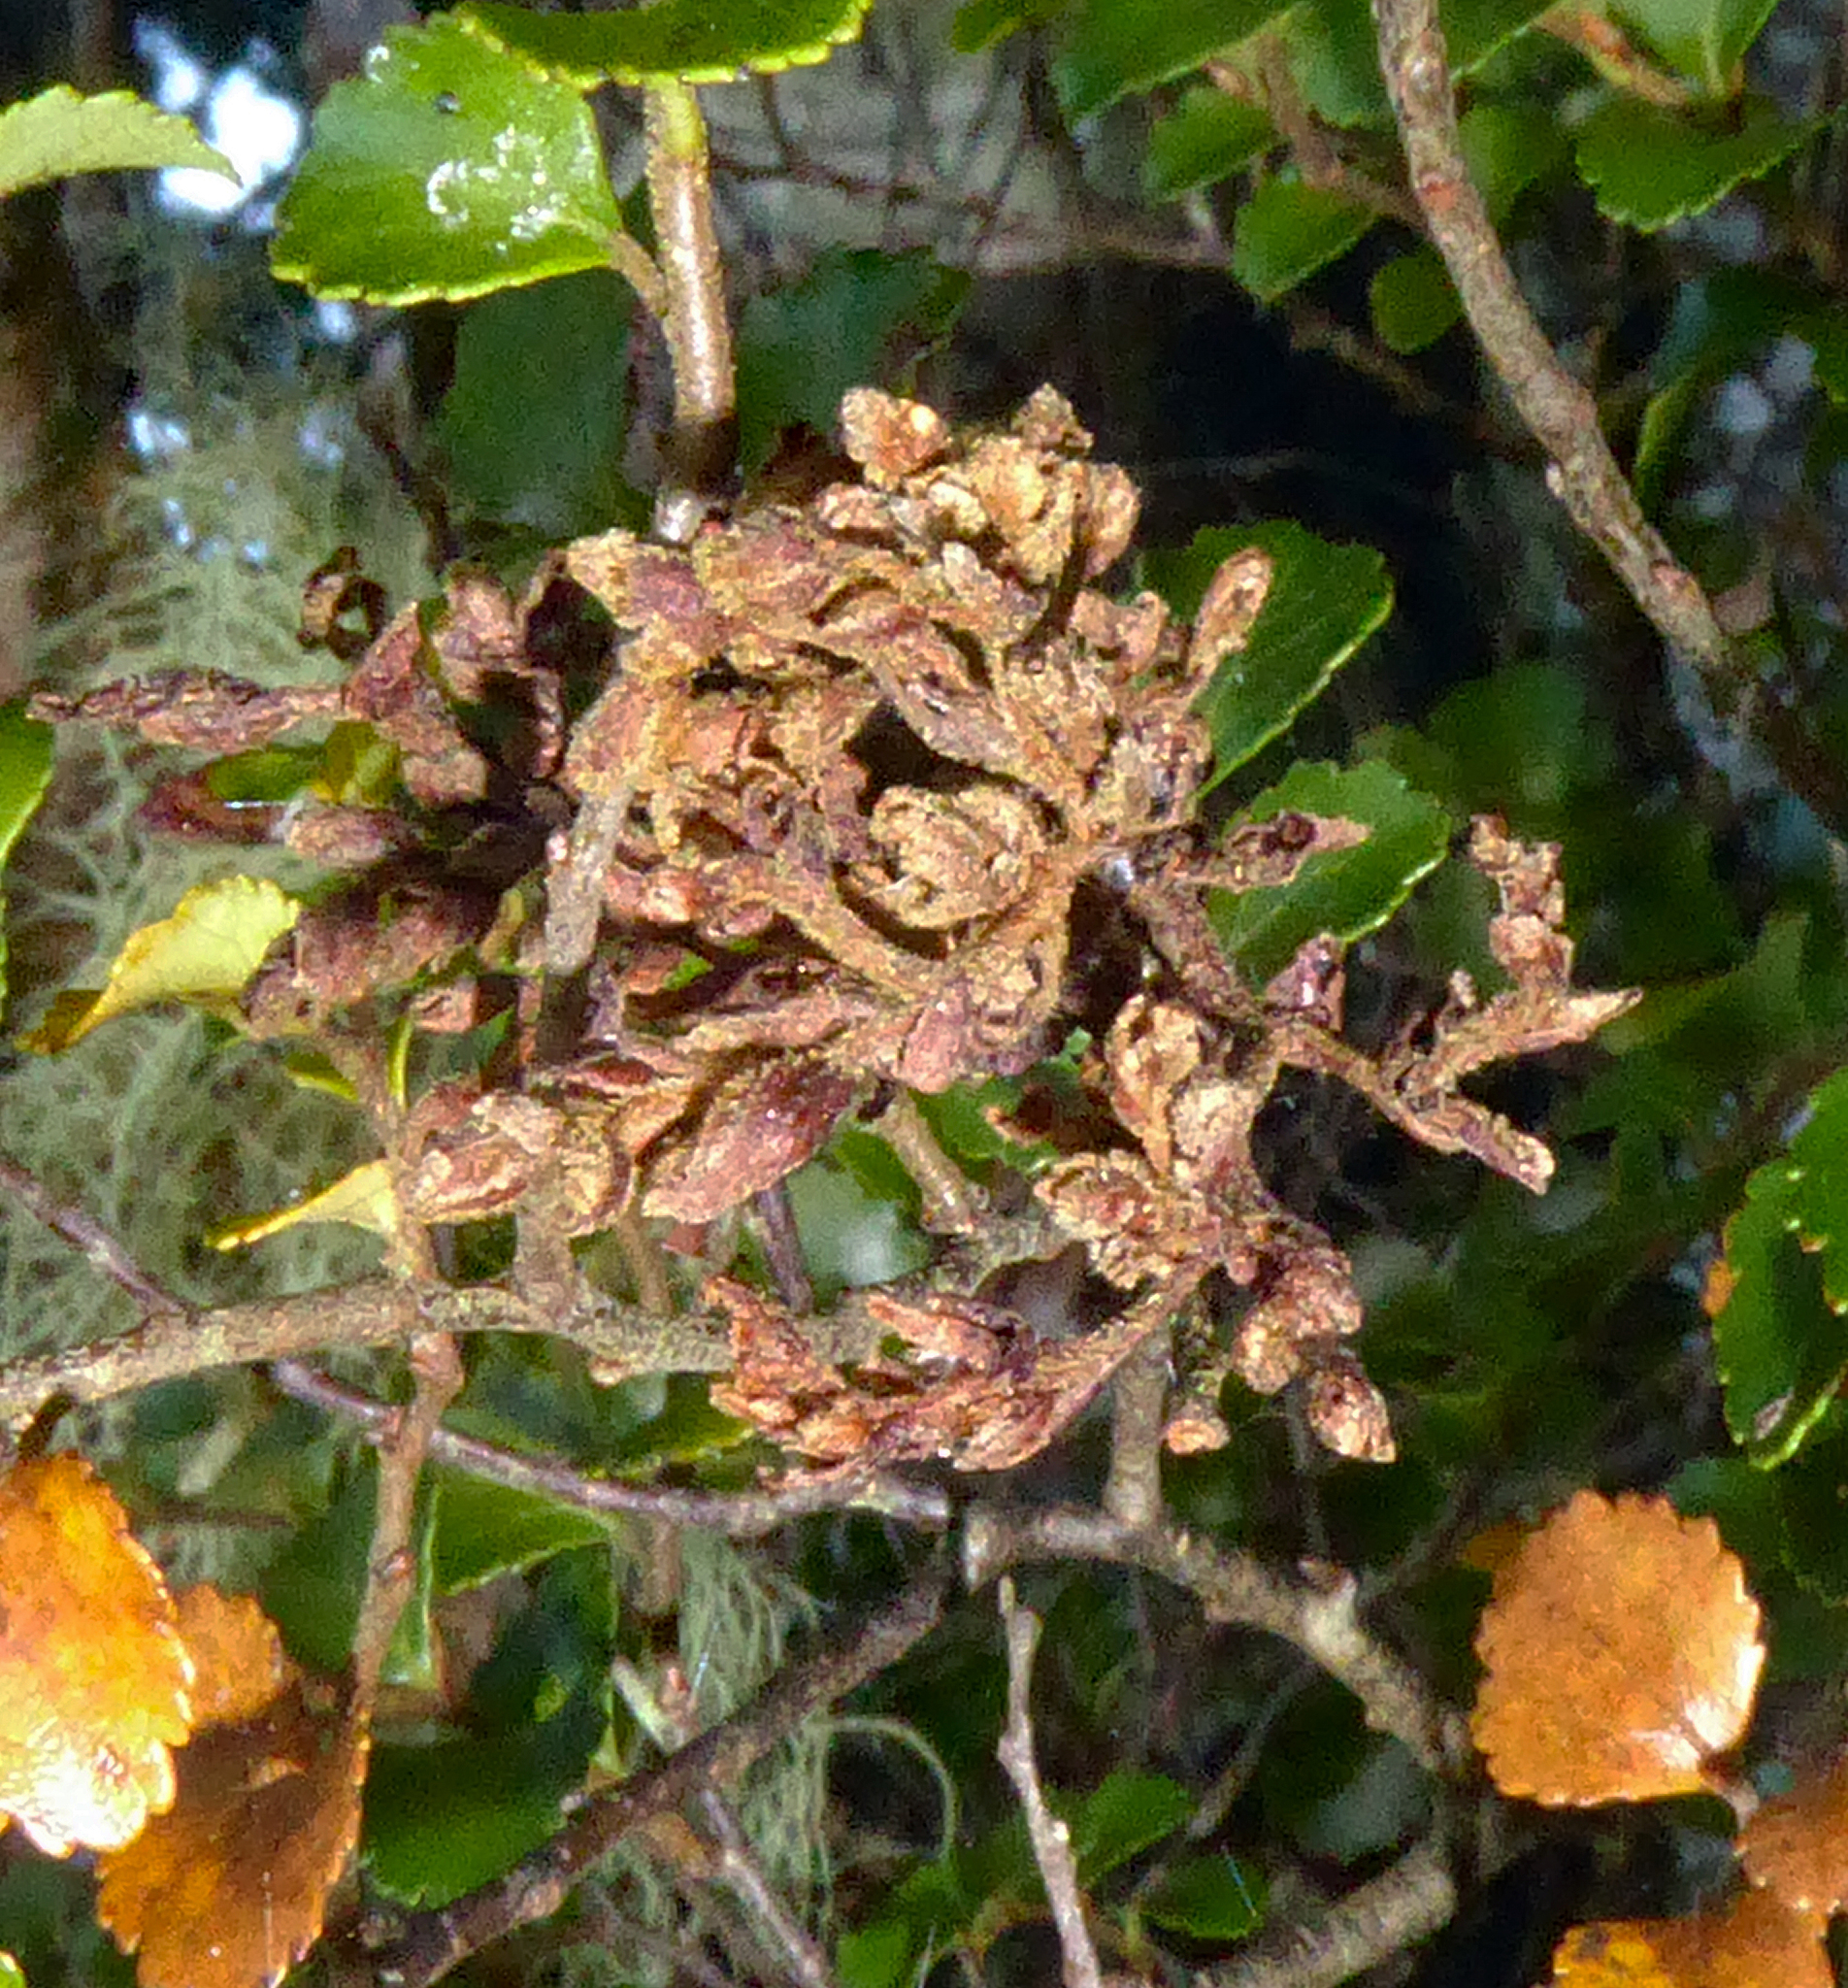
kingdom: Animalia
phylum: Arthropoda
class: Arachnida
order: Trombidiformes
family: Eriophyidae
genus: Cymoptus
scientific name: Cymoptus
